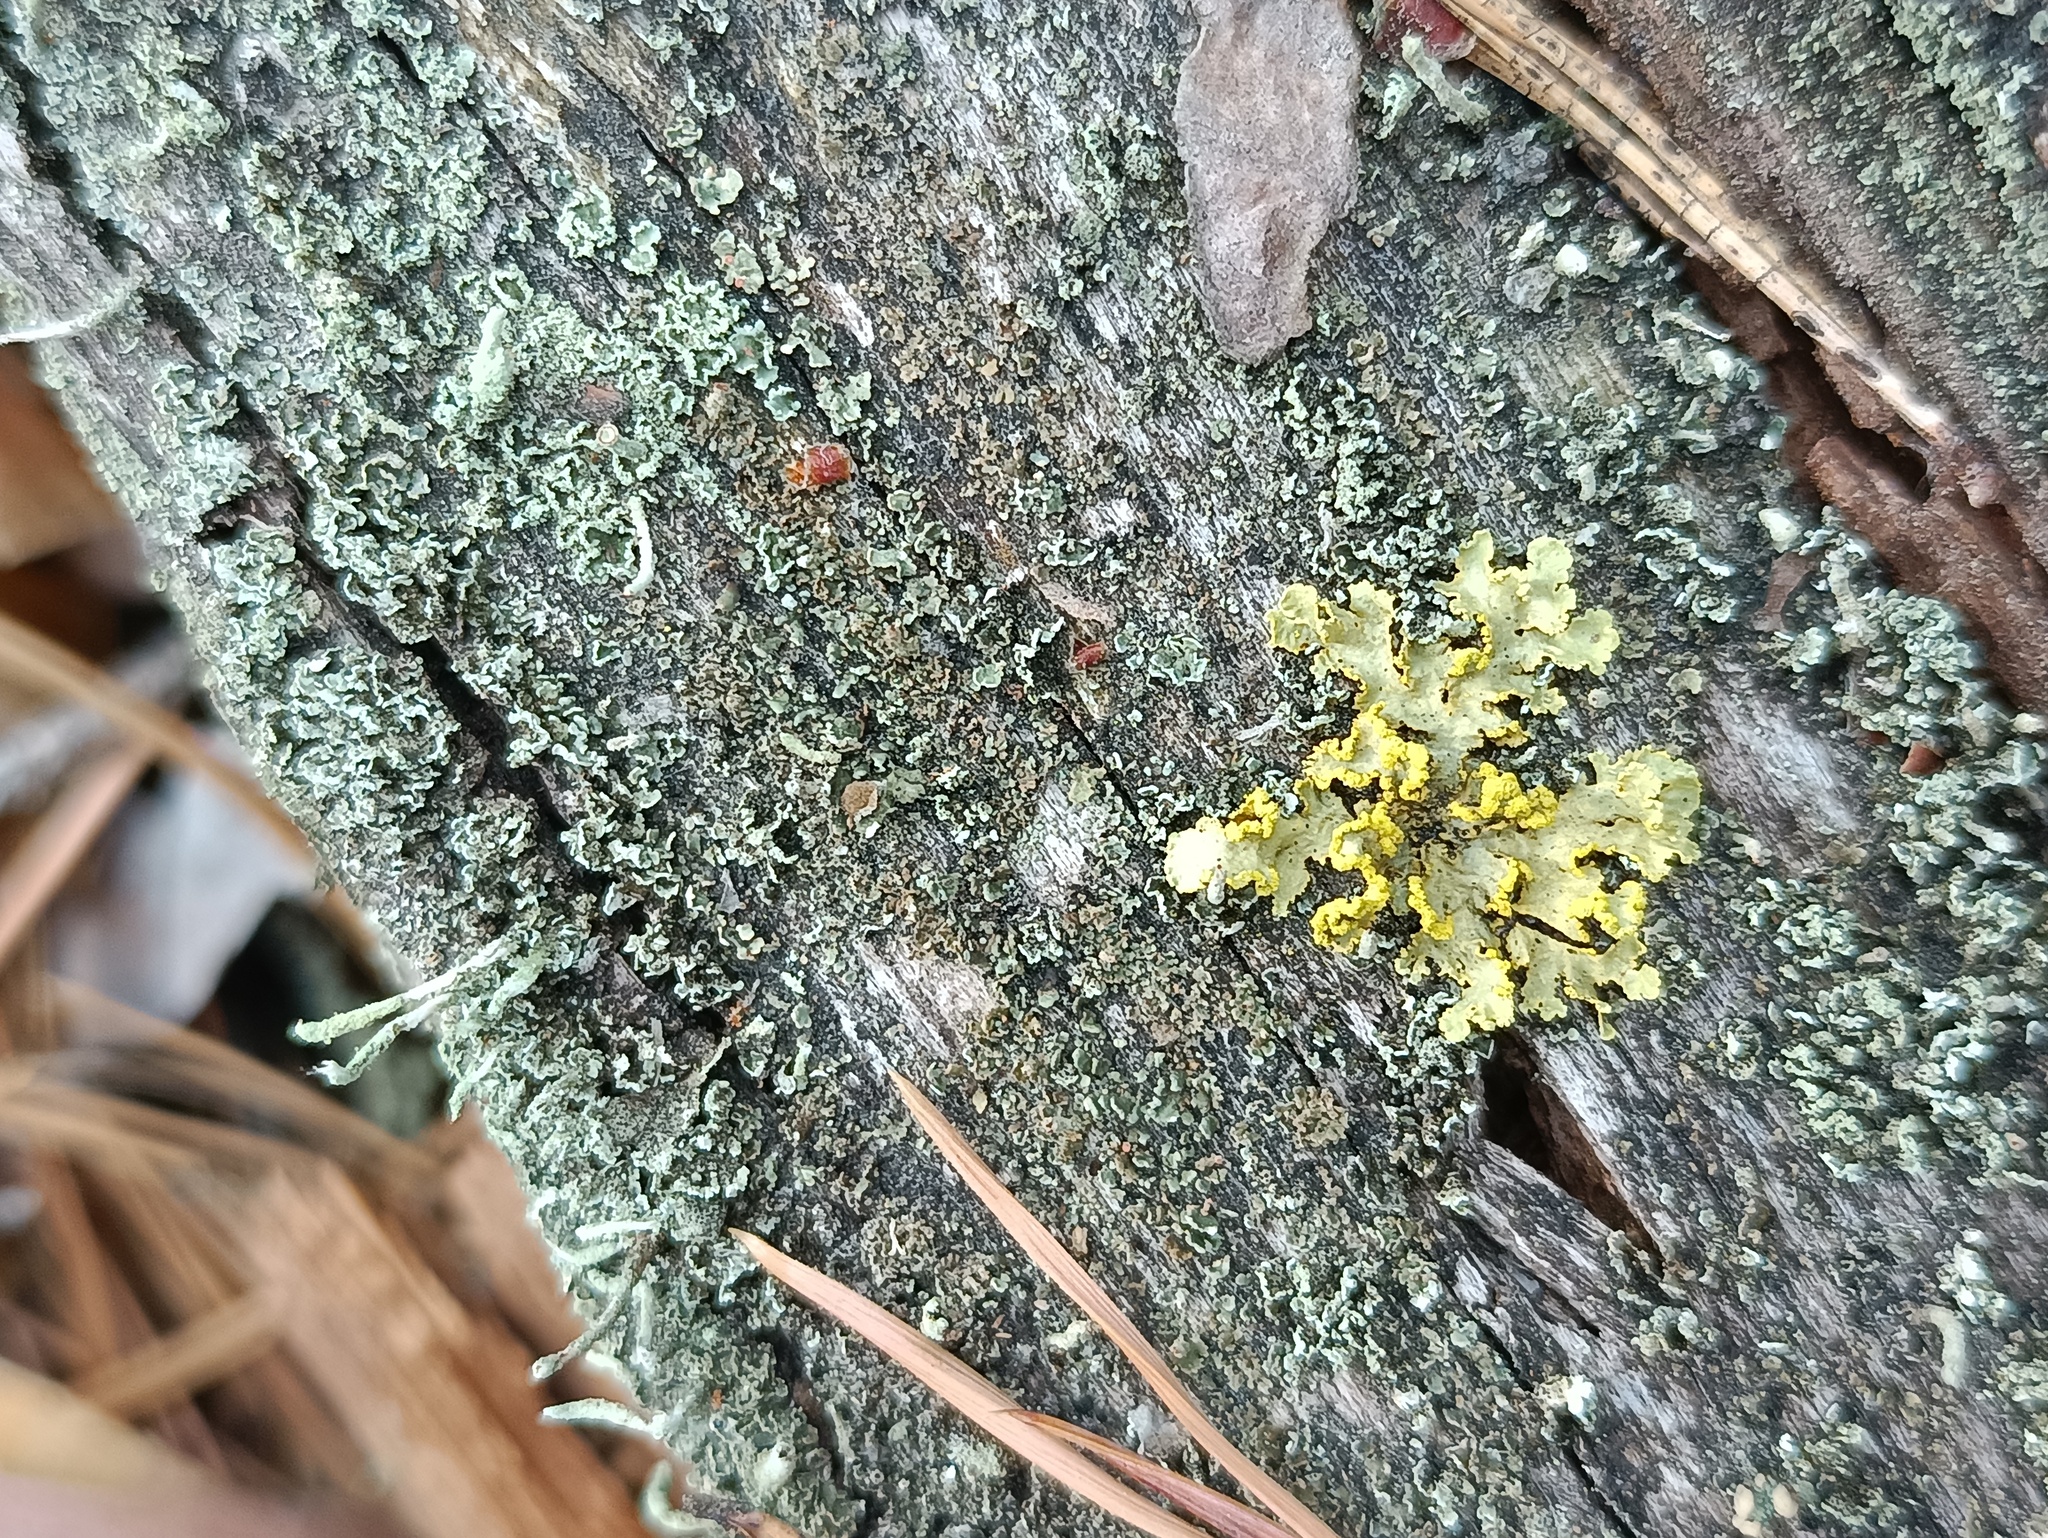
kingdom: Fungi
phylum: Ascomycota
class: Lecanoromycetes
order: Lecanorales
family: Parmeliaceae
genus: Vulpicida
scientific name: Vulpicida pinastri
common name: Powdered sunshine lichen
